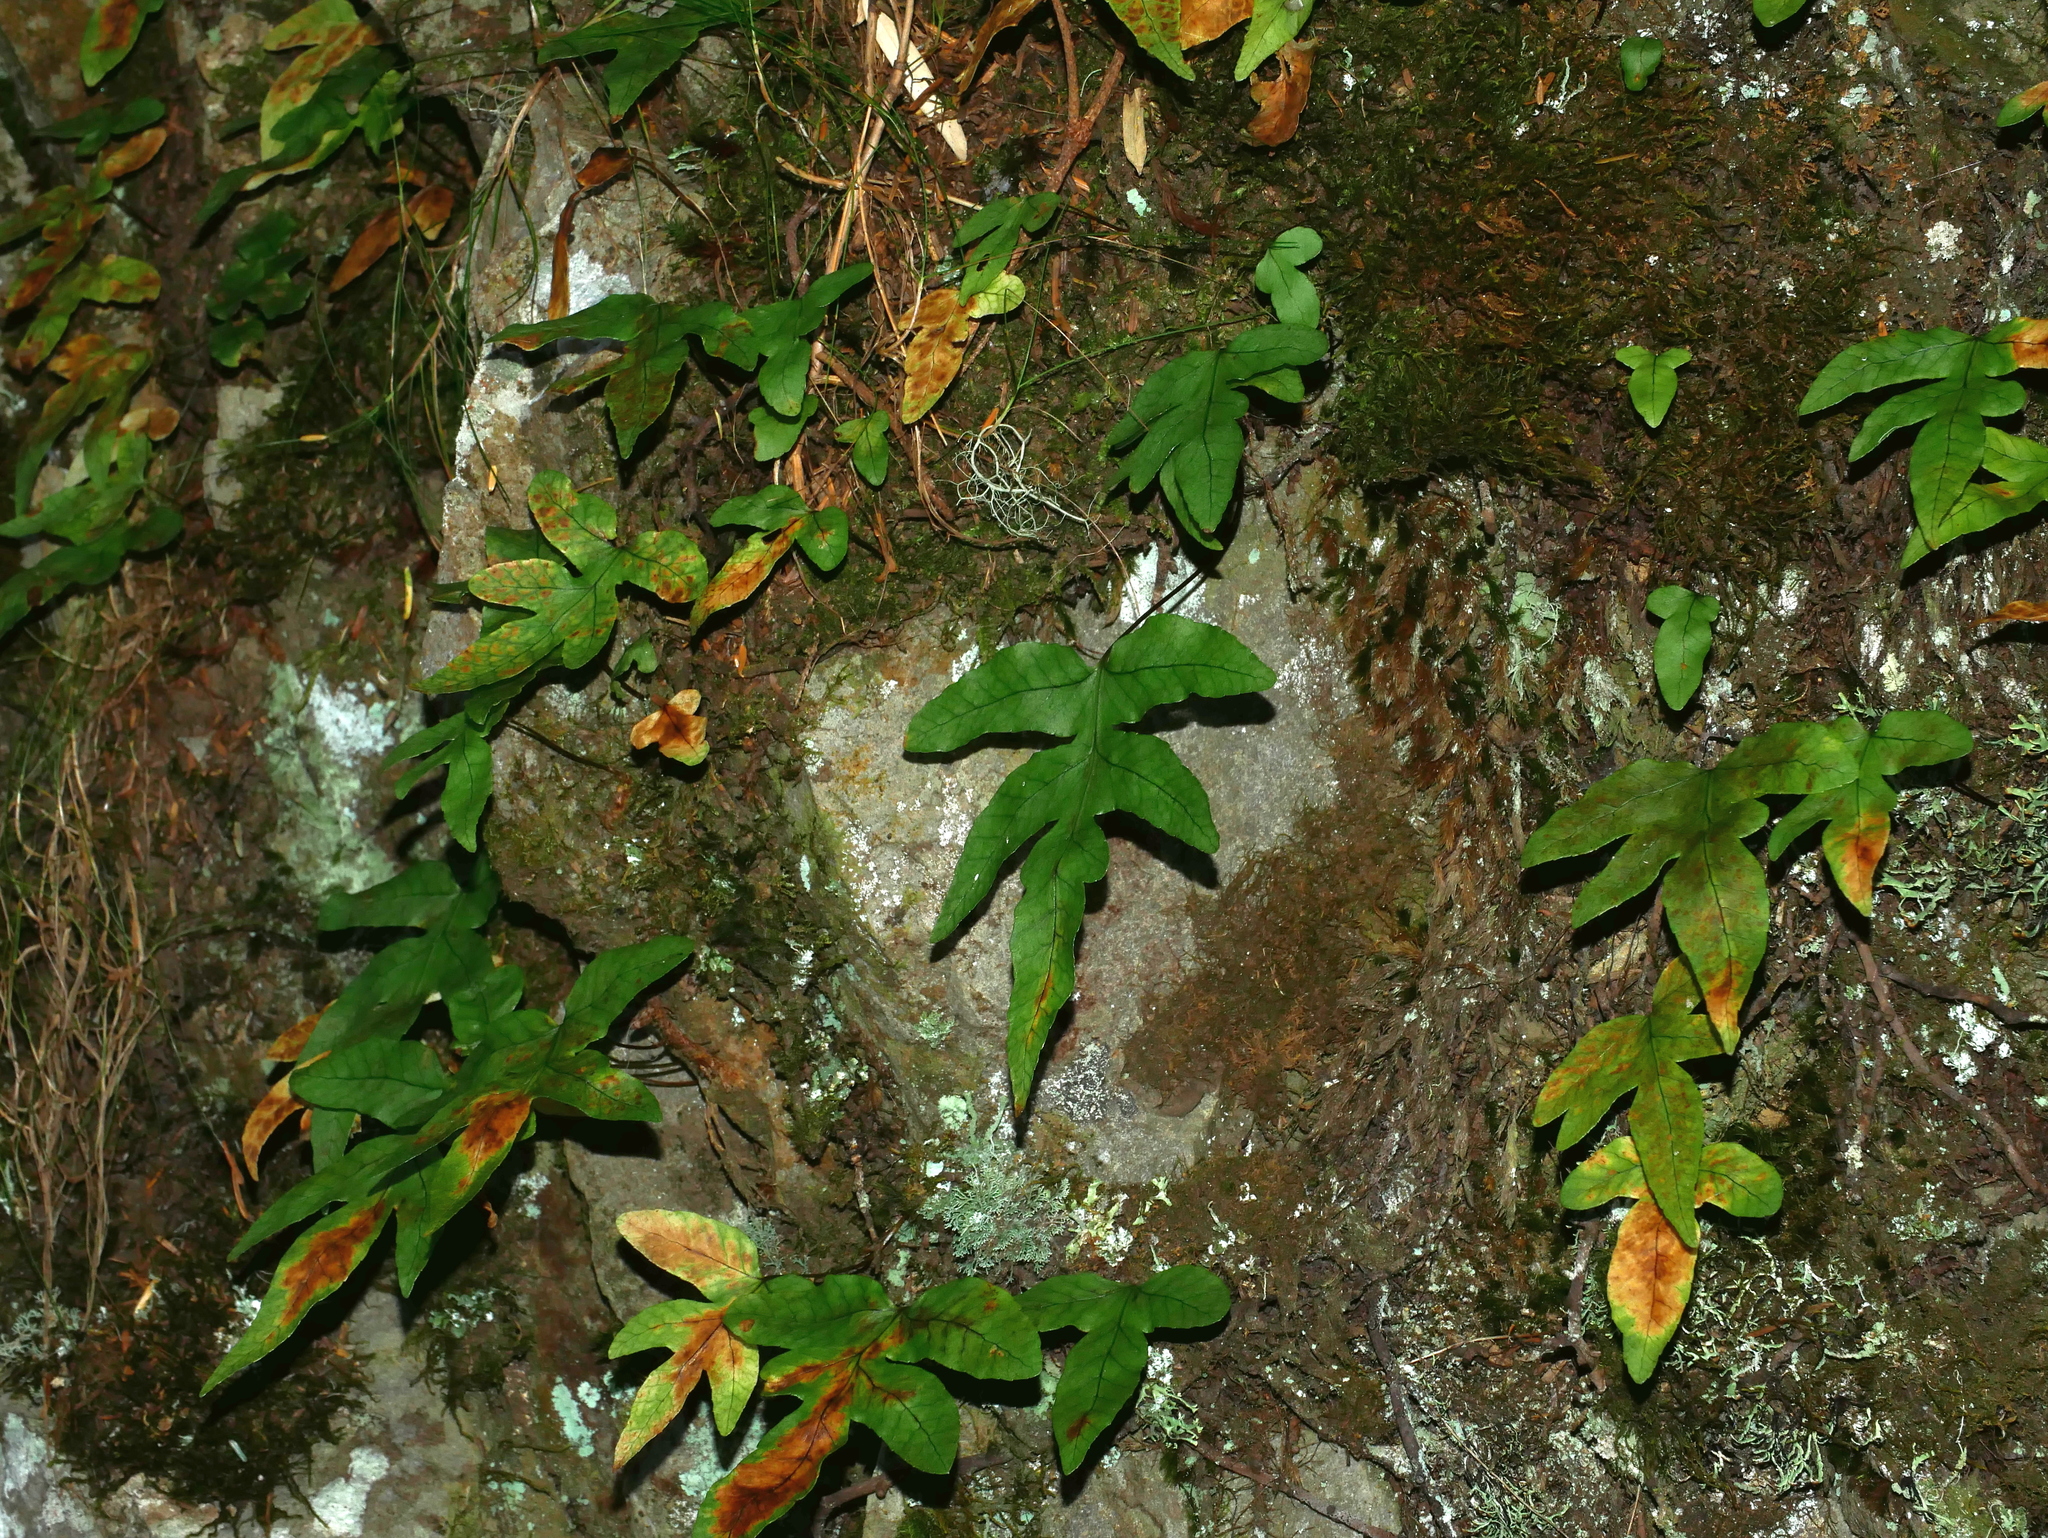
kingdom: Plantae
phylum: Tracheophyta
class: Polypodiopsida
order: Polypodiales
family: Polypodiaceae
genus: Selliguea
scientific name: Selliguea quasidivaricata
